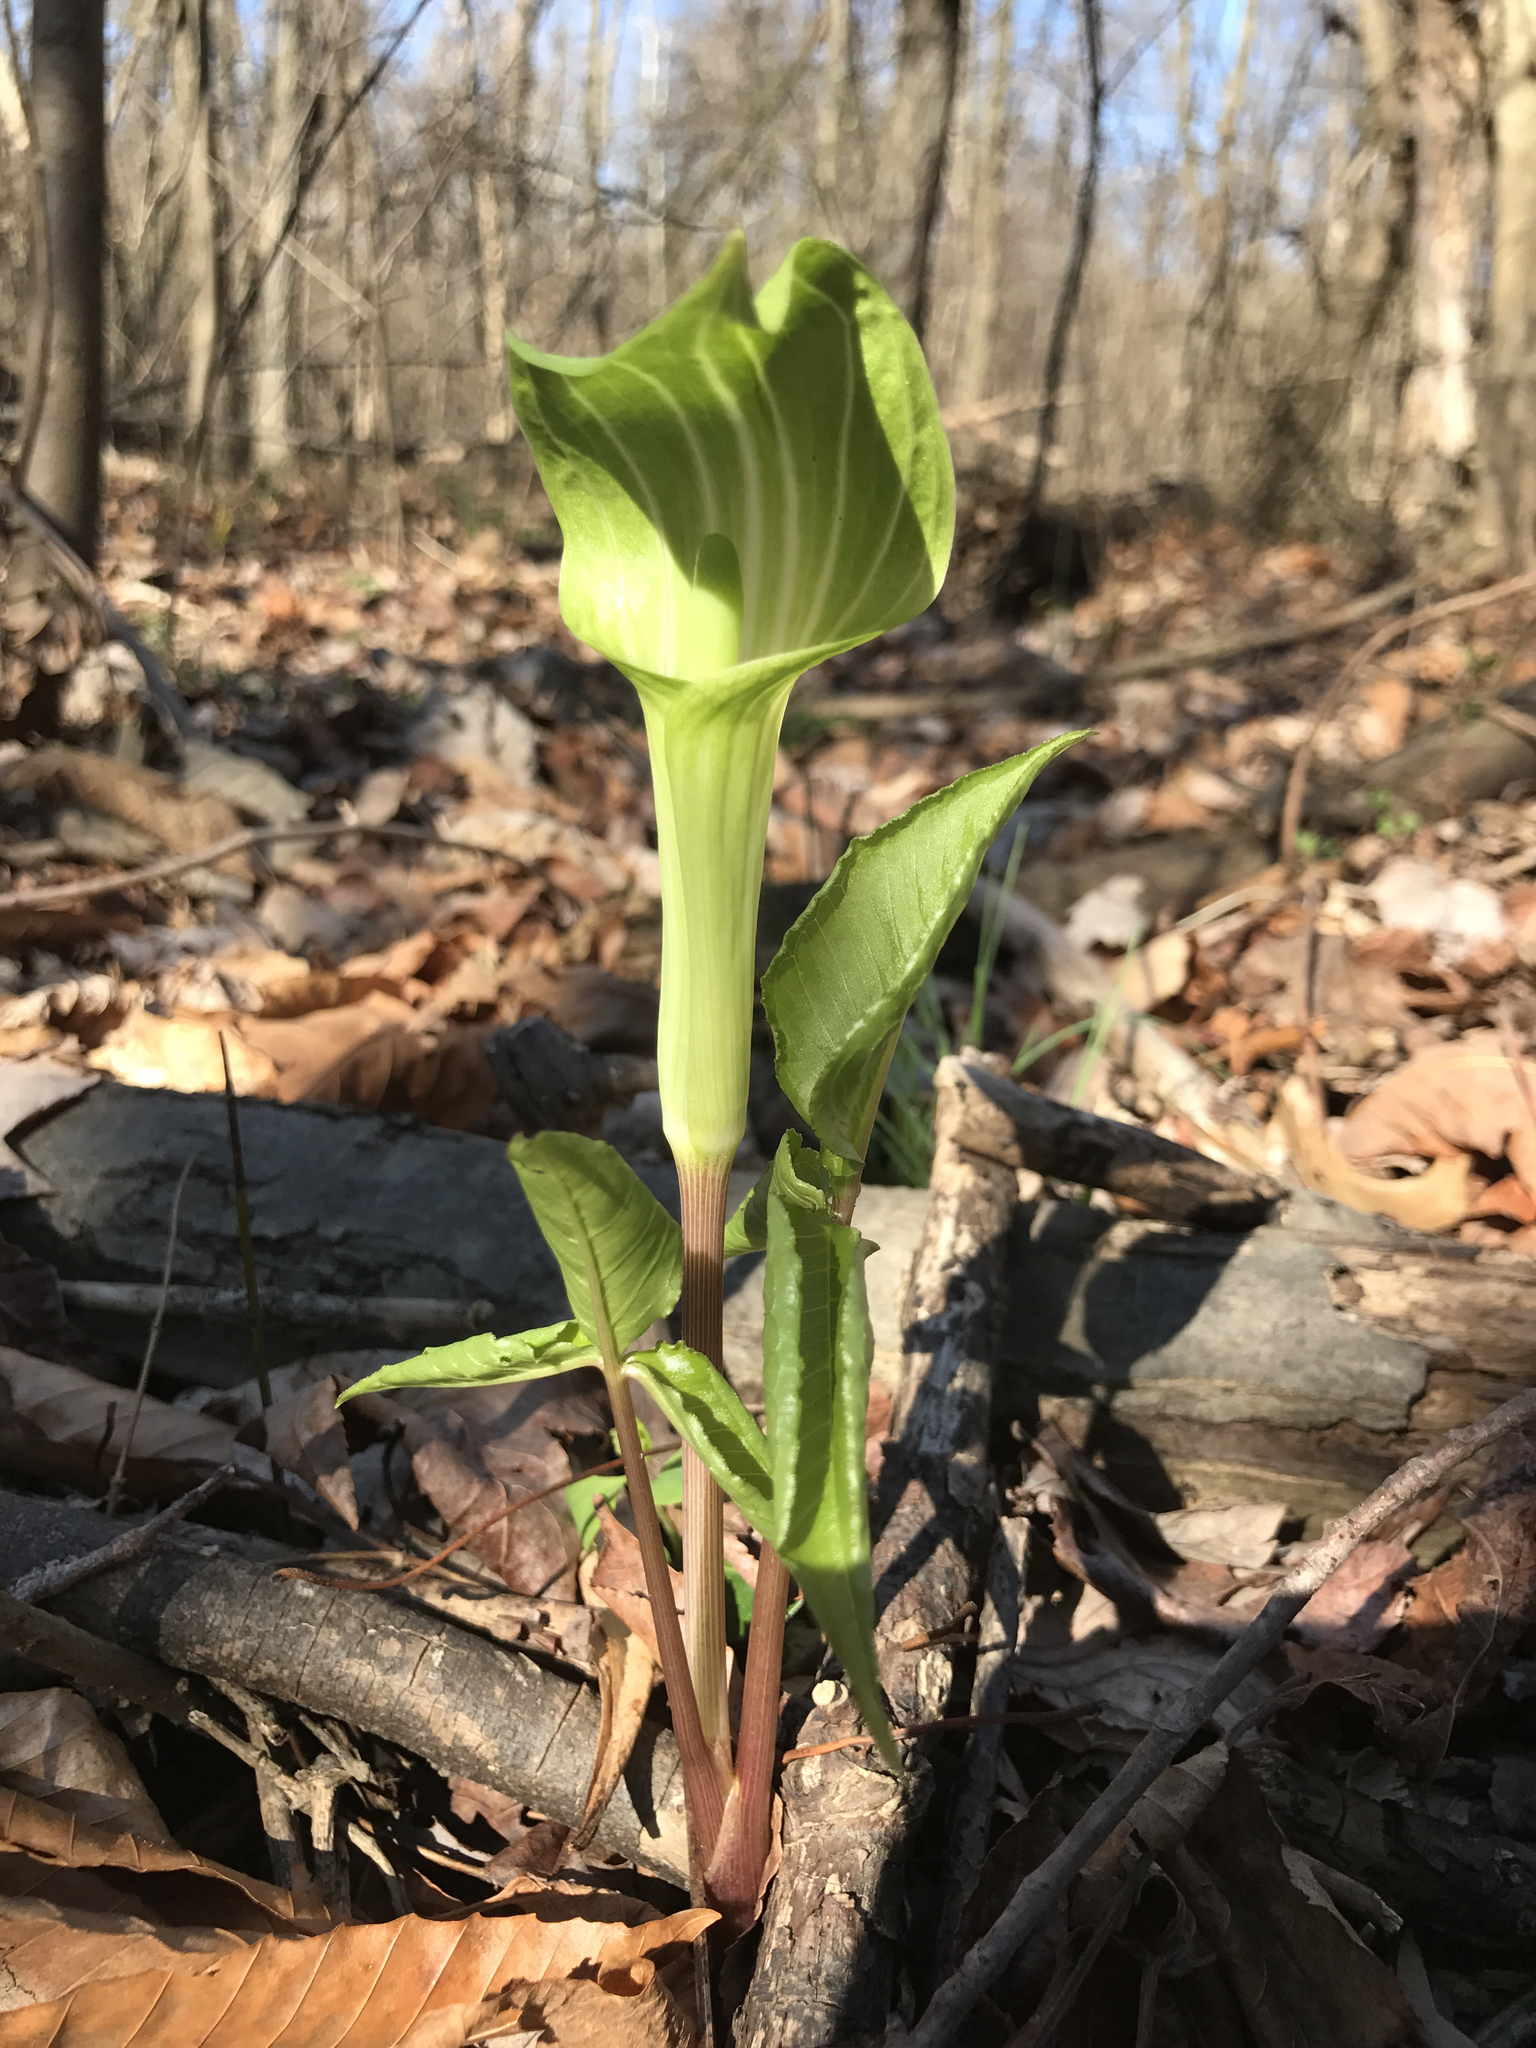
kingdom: Plantae
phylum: Tracheophyta
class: Liliopsida
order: Alismatales
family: Araceae
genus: Arisaema
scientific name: Arisaema triphyllum
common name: Jack-in-the-pulpit
